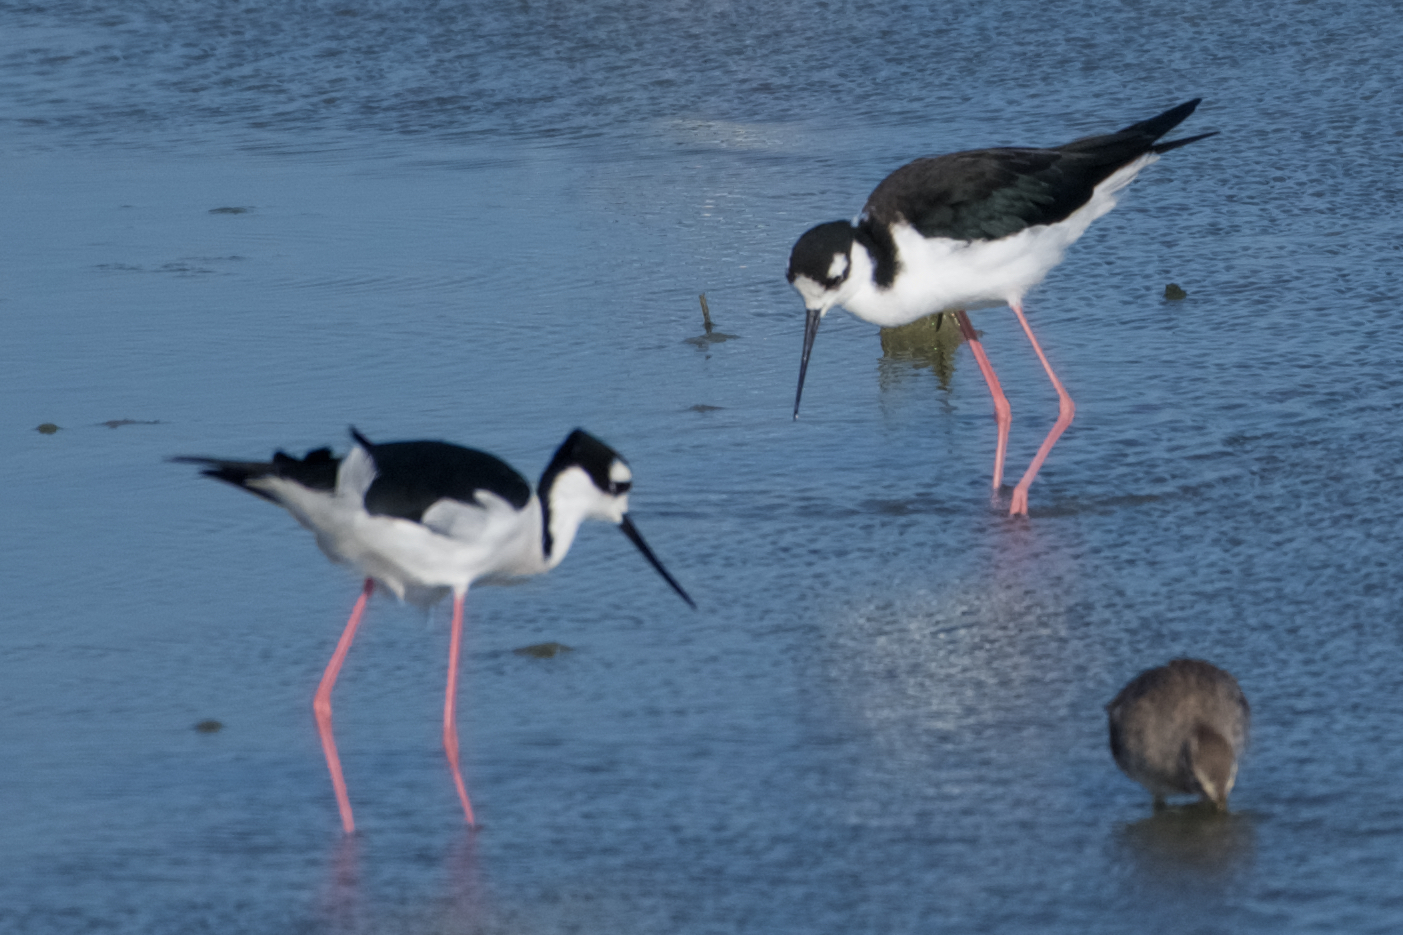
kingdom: Animalia
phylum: Chordata
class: Aves
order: Charadriiformes
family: Recurvirostridae
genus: Himantopus
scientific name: Himantopus mexicanus
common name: Black-necked stilt
